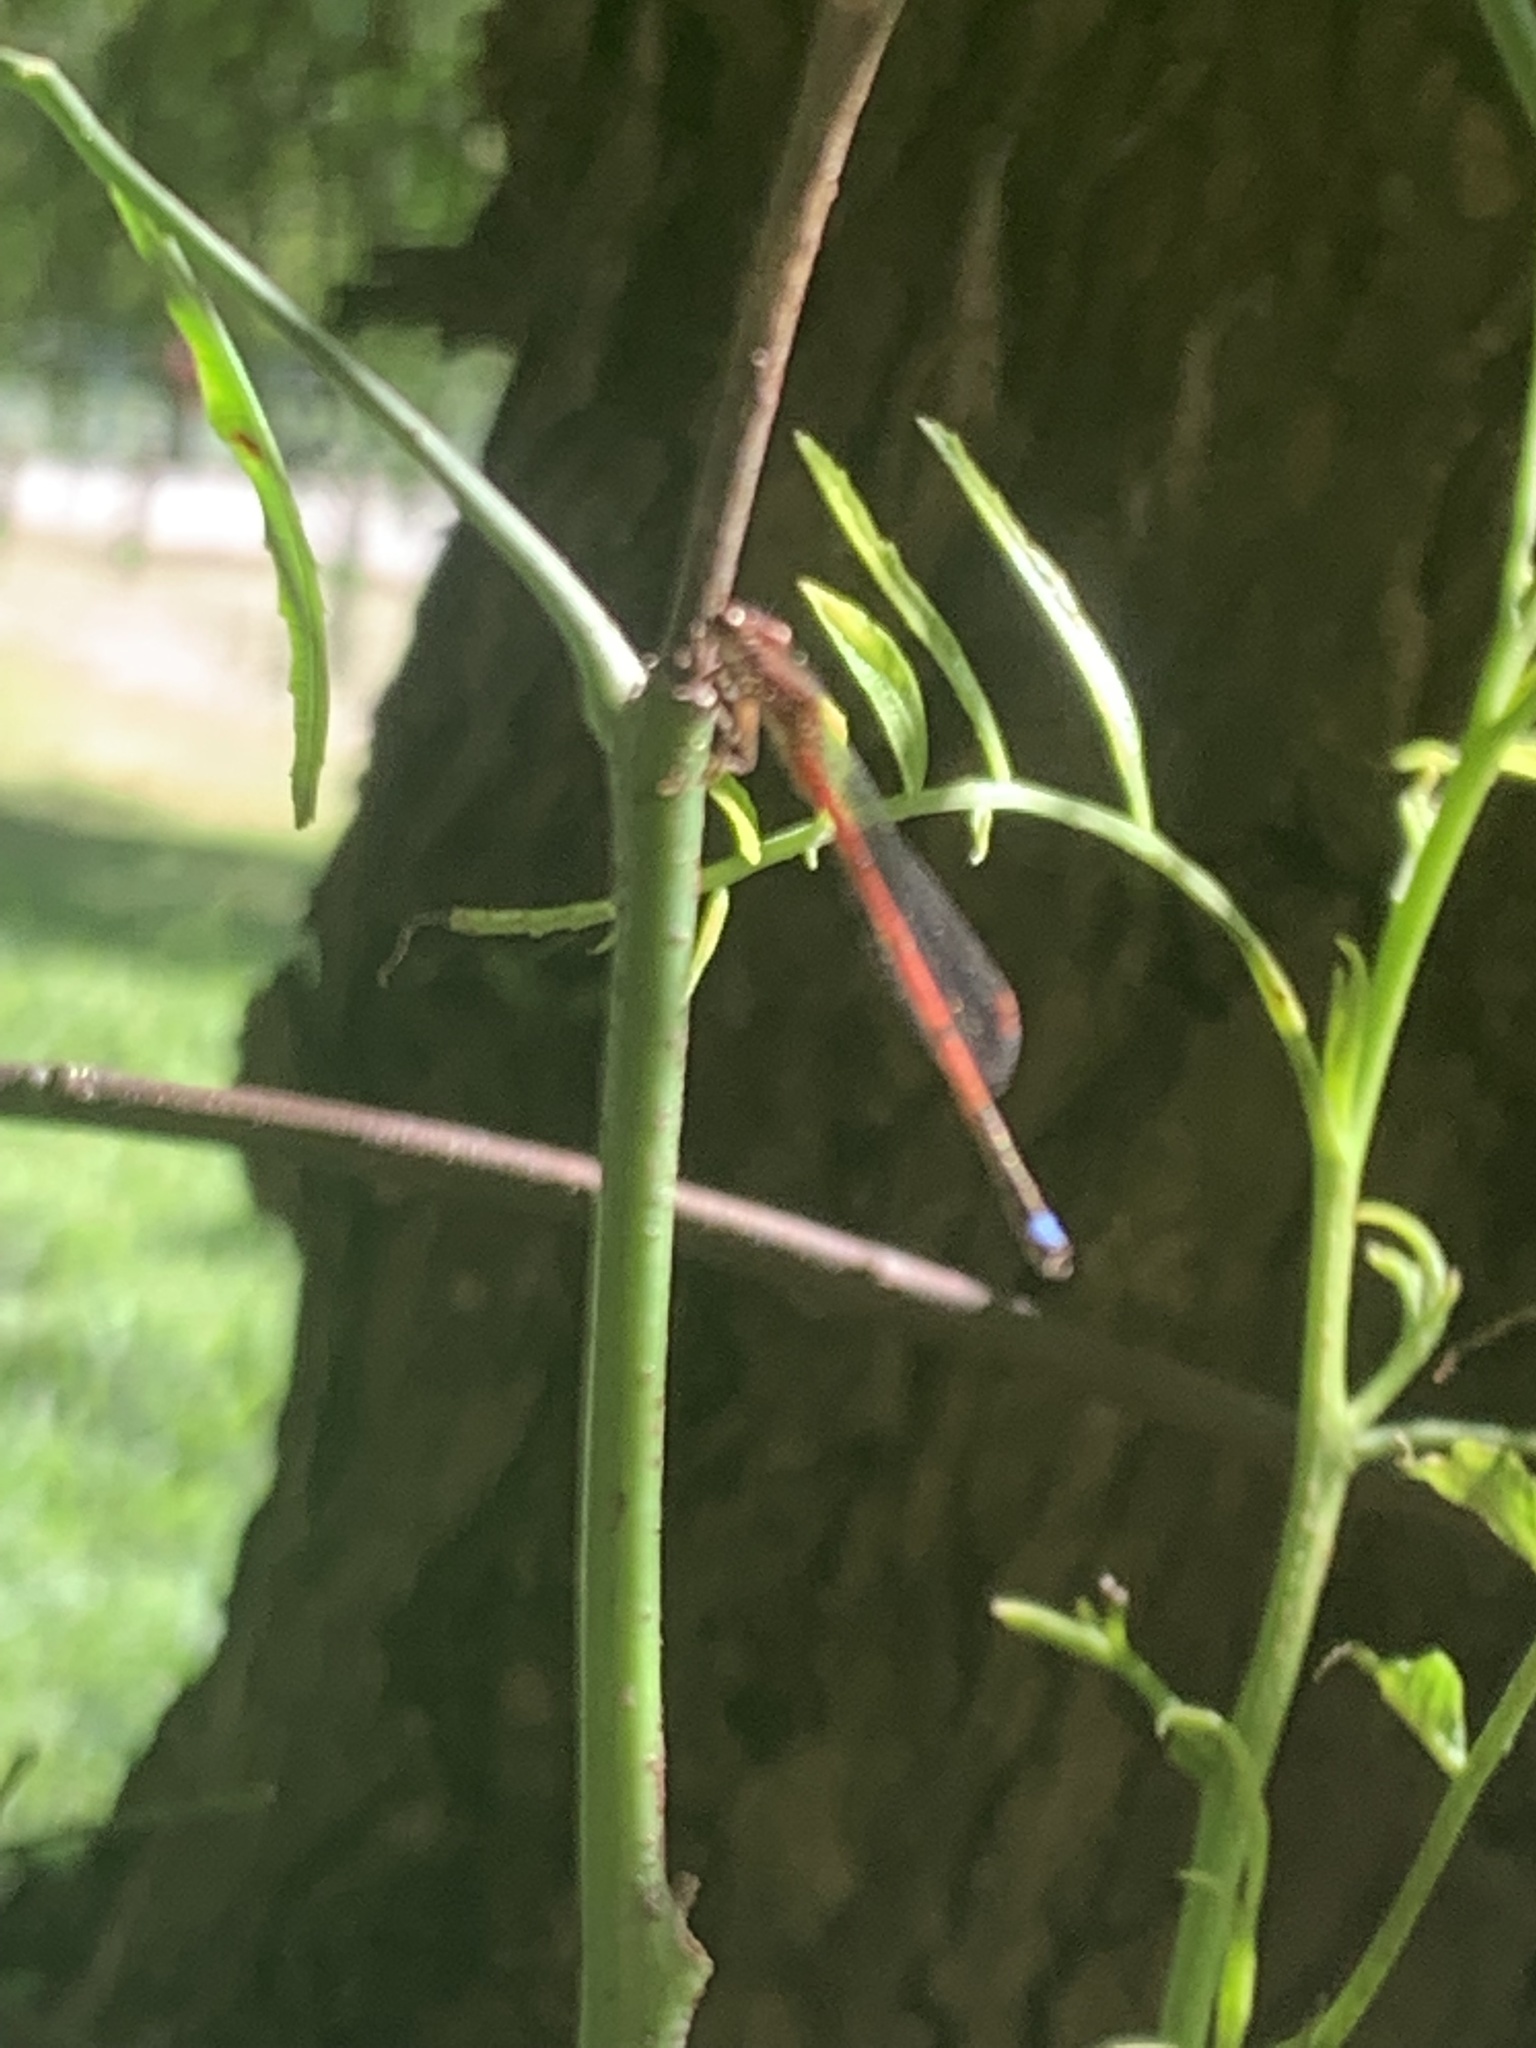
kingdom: Animalia
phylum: Arthropoda
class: Insecta
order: Odonata
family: Coenagrionidae
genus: Oxyagrion
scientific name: Oxyagrion terminale
